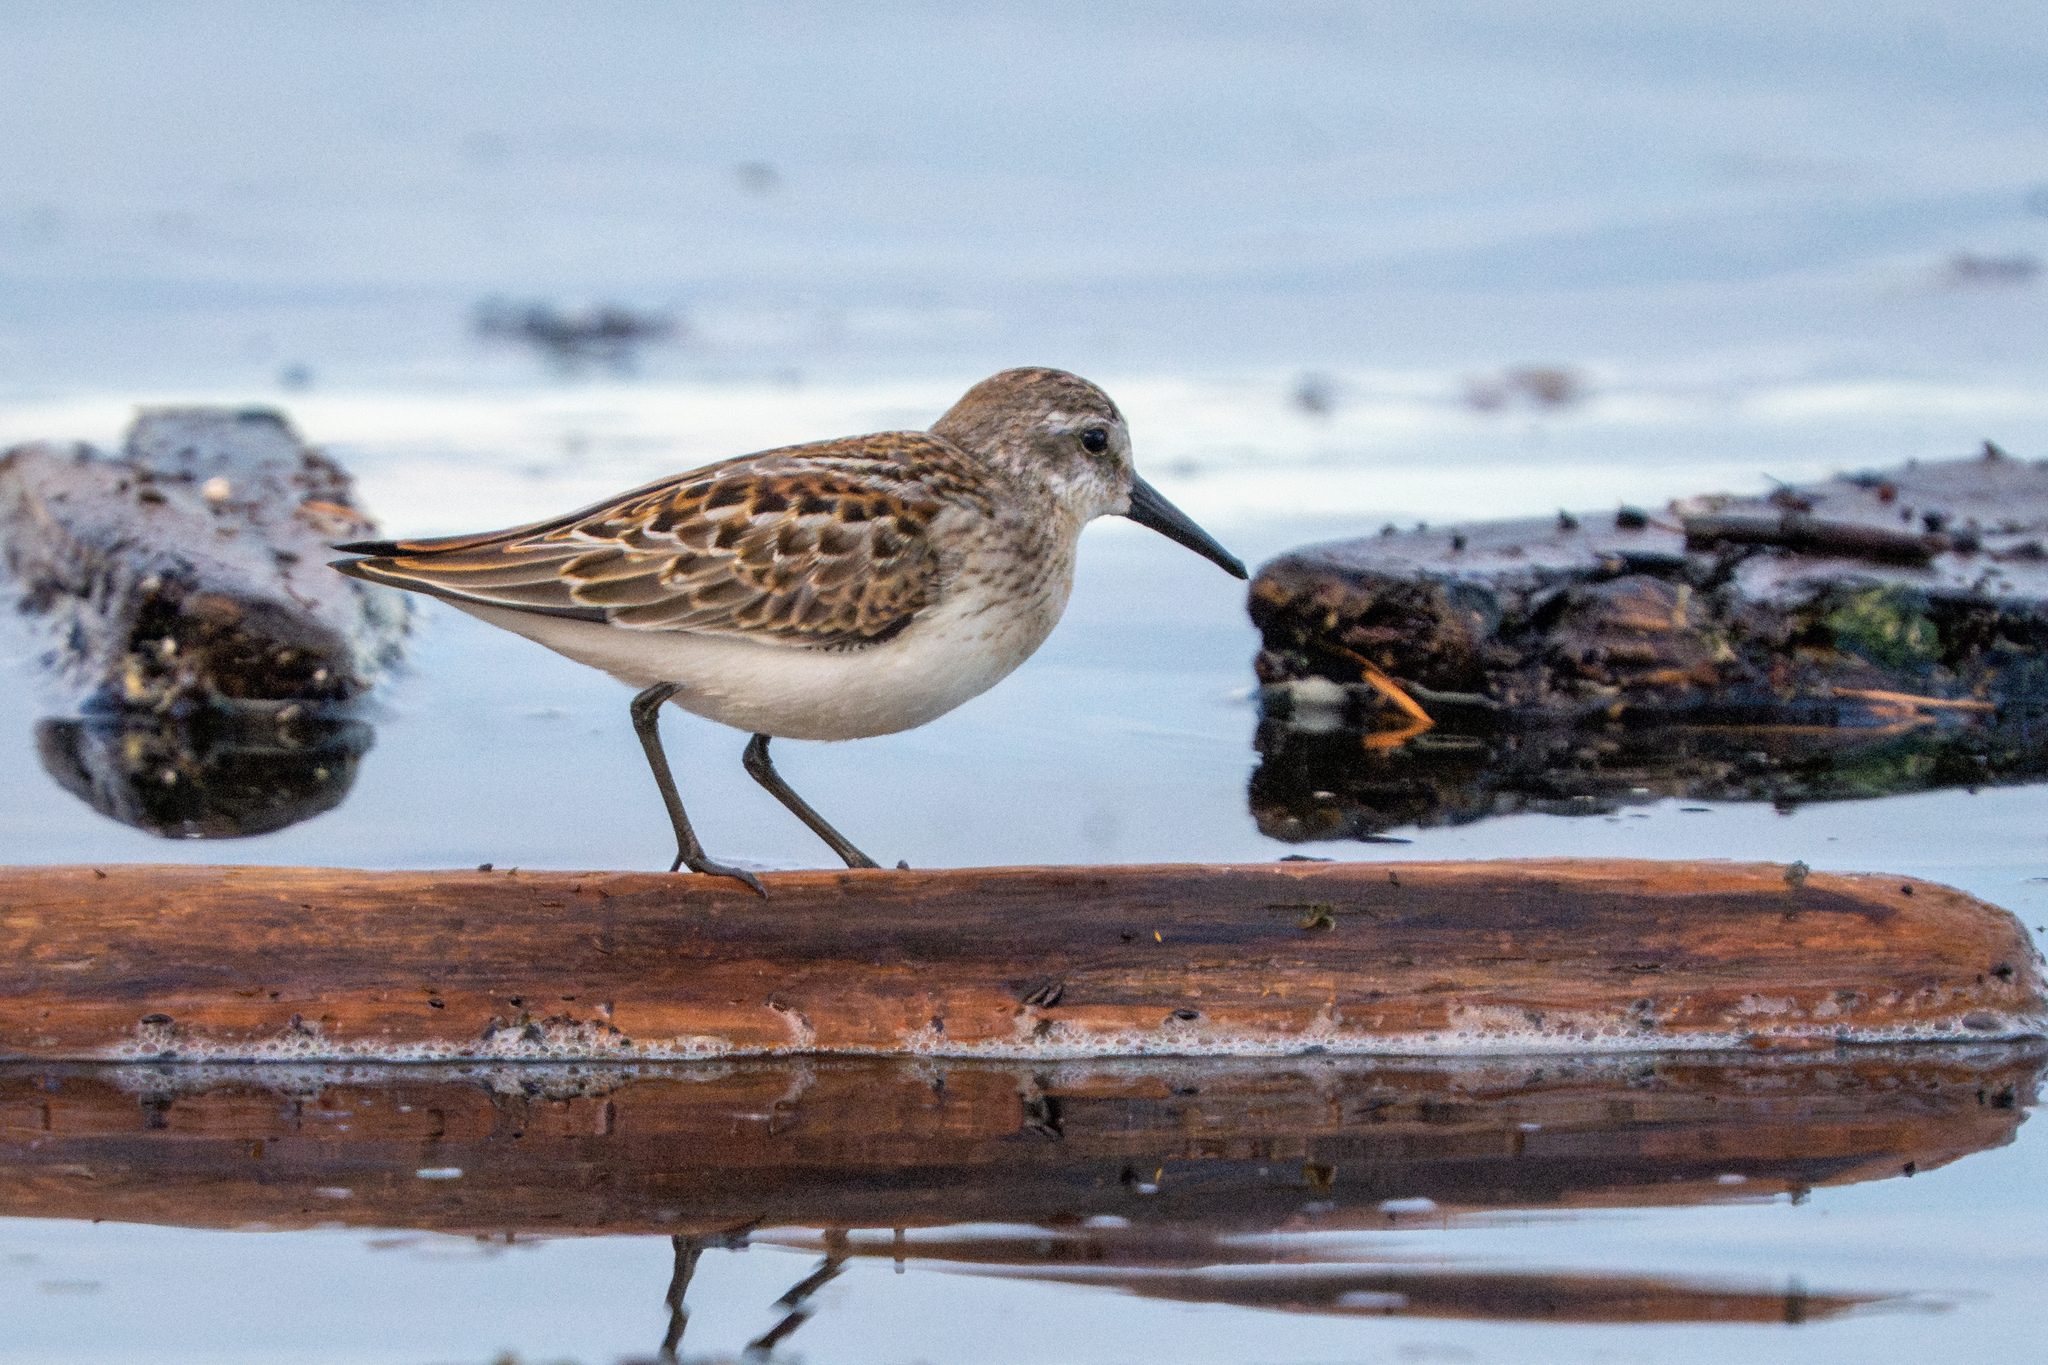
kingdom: Animalia
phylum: Chordata
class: Aves
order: Charadriiformes
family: Scolopacidae
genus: Calidris
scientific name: Calidris mauri
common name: Western sandpiper
